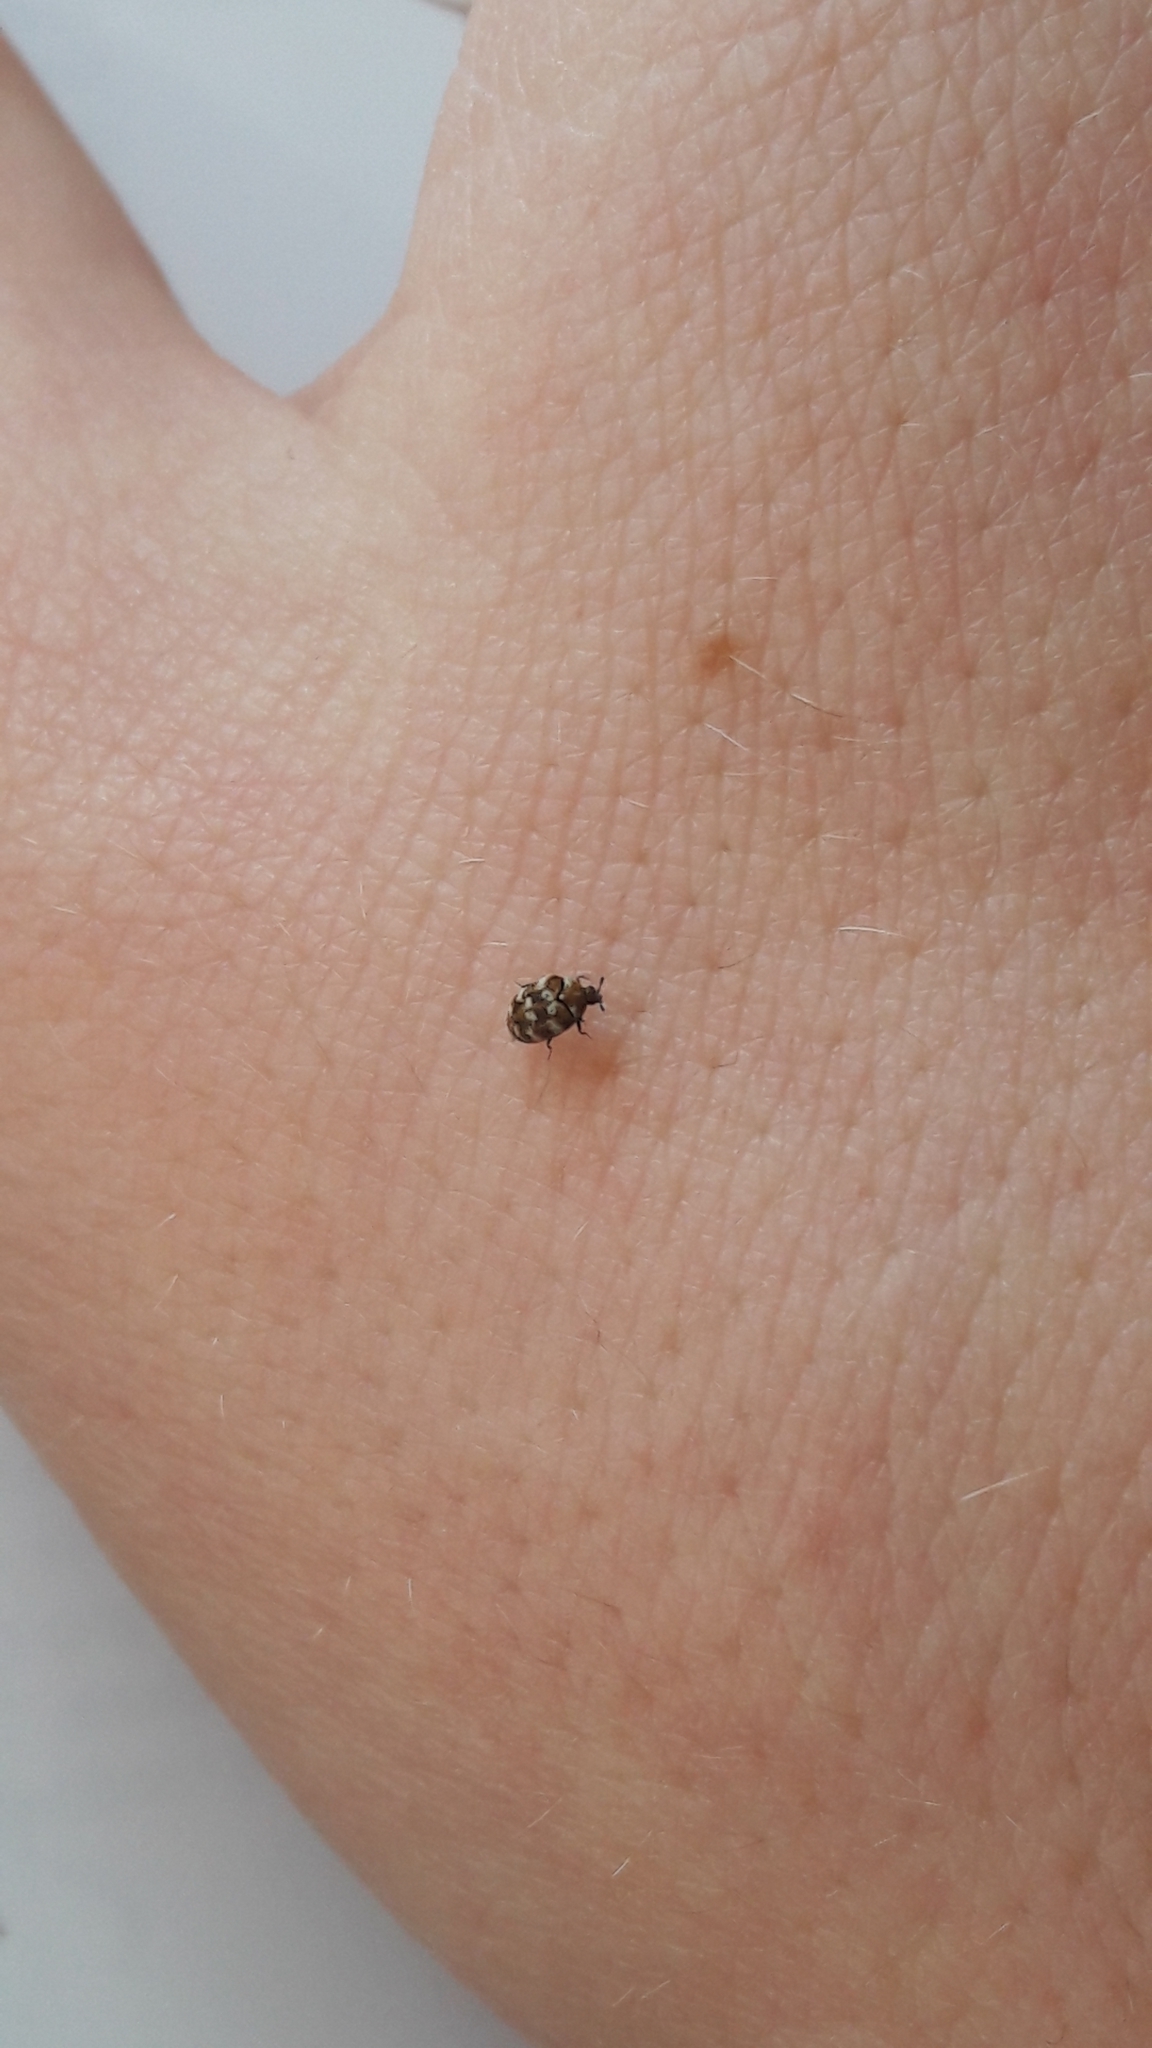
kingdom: Animalia
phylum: Arthropoda
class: Insecta
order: Coleoptera
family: Dermestidae
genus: Anthrenus
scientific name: Anthrenus verbasci
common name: Varied carpet beetle
